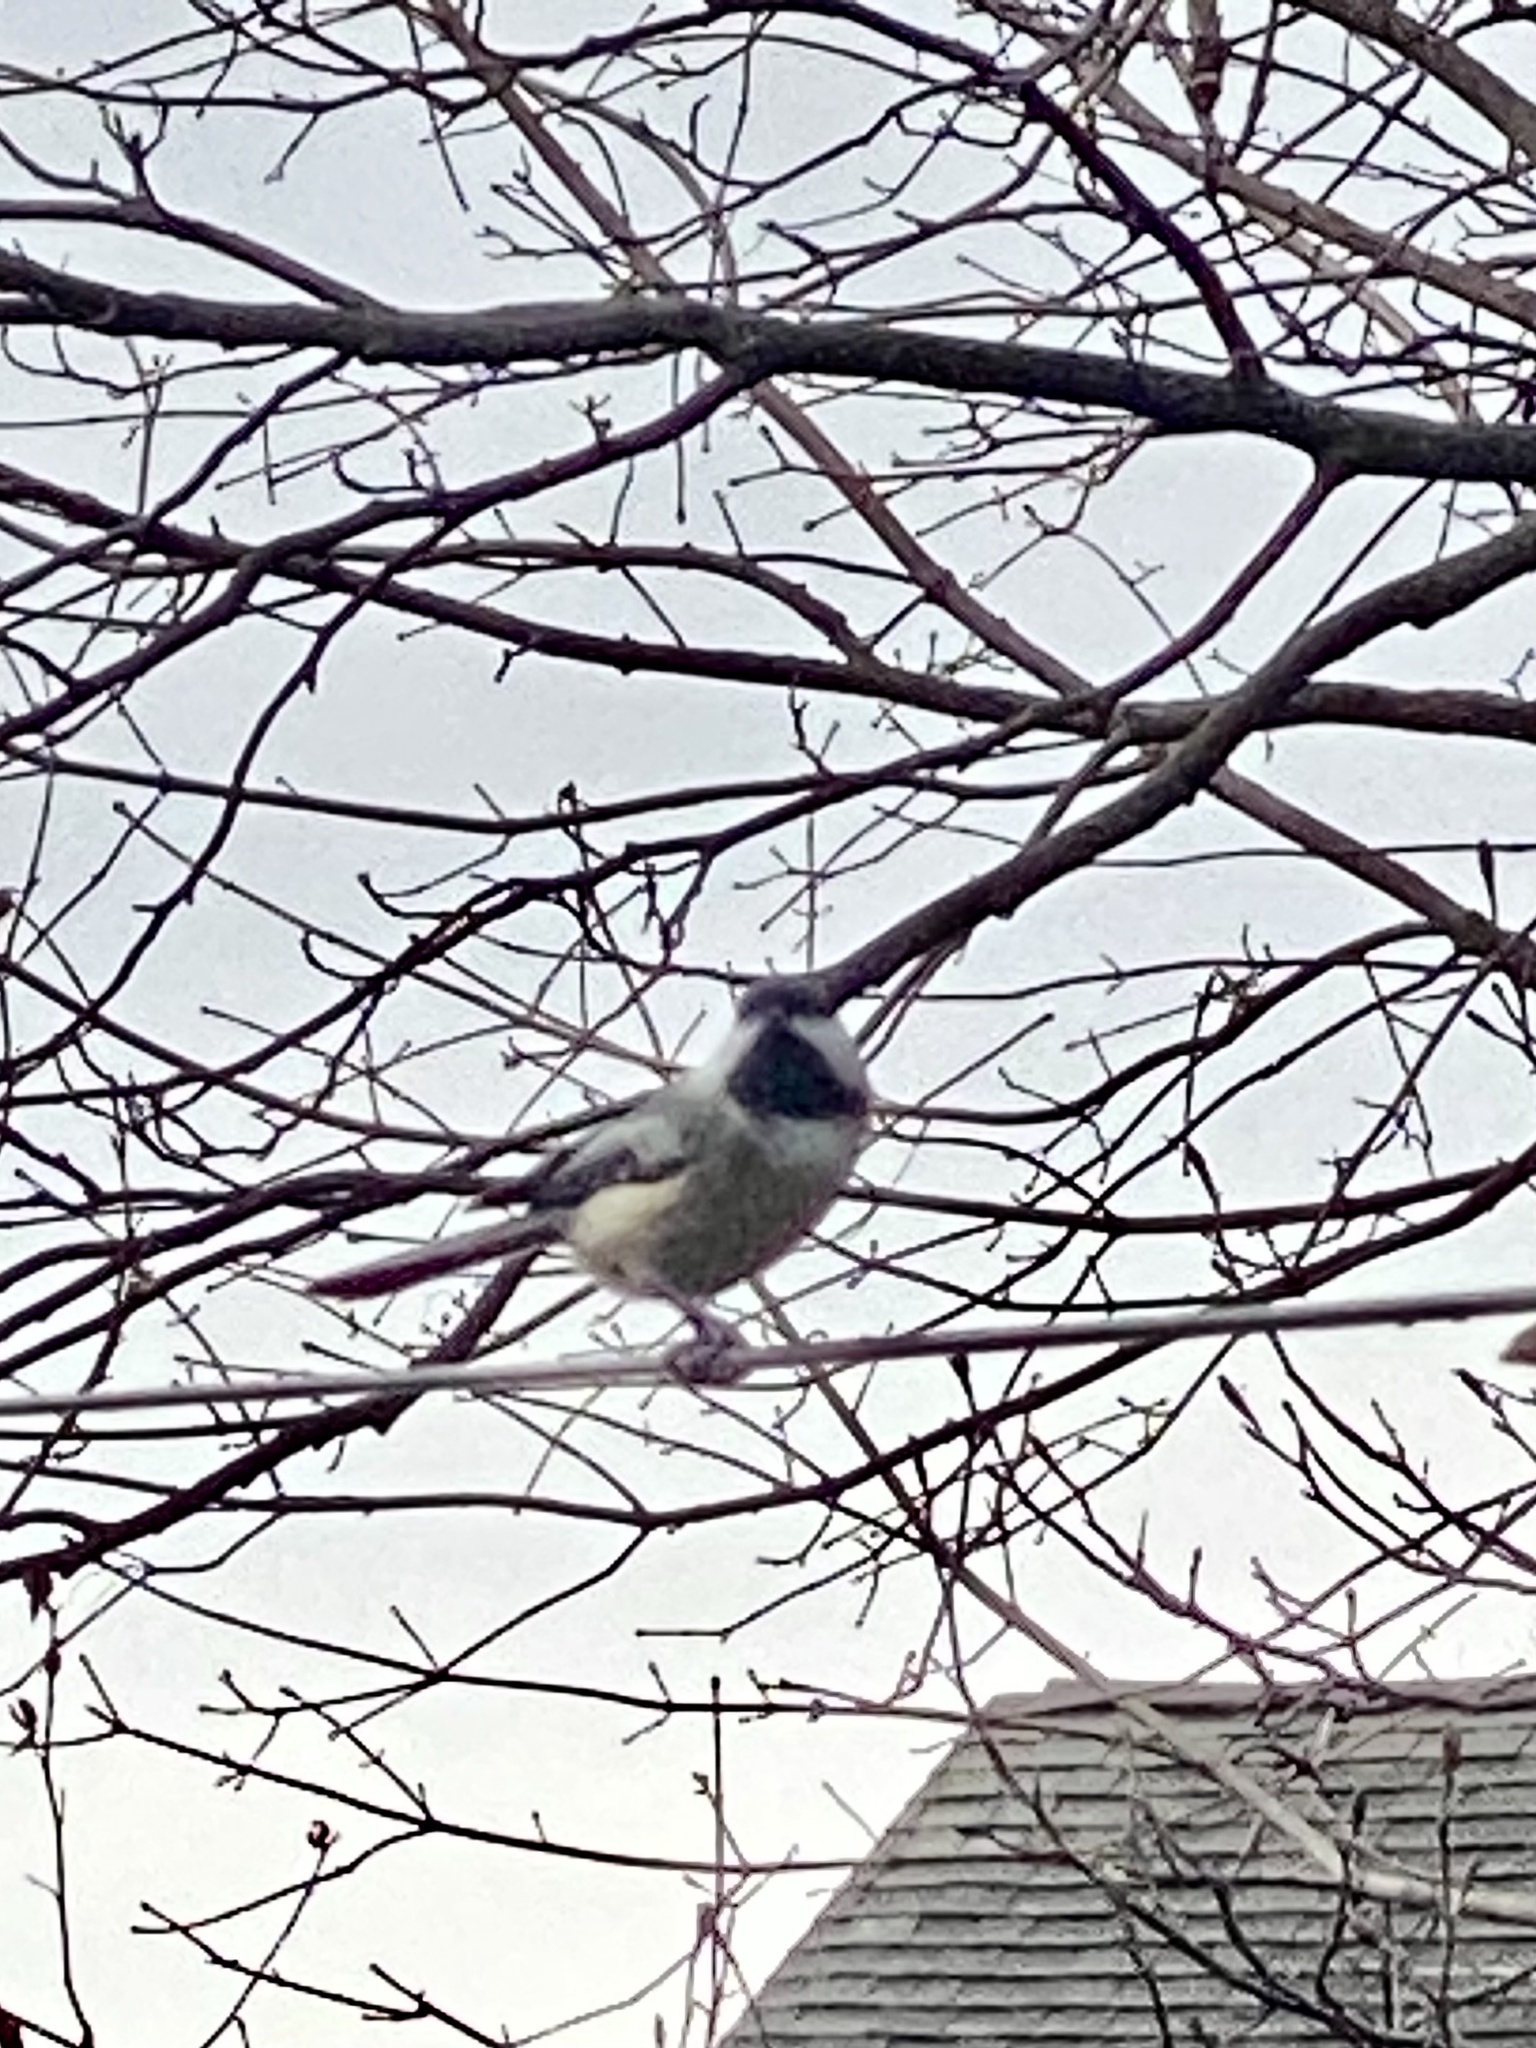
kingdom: Animalia
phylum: Chordata
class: Aves
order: Passeriformes
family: Paridae
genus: Poecile
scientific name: Poecile atricapillus
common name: Black-capped chickadee
